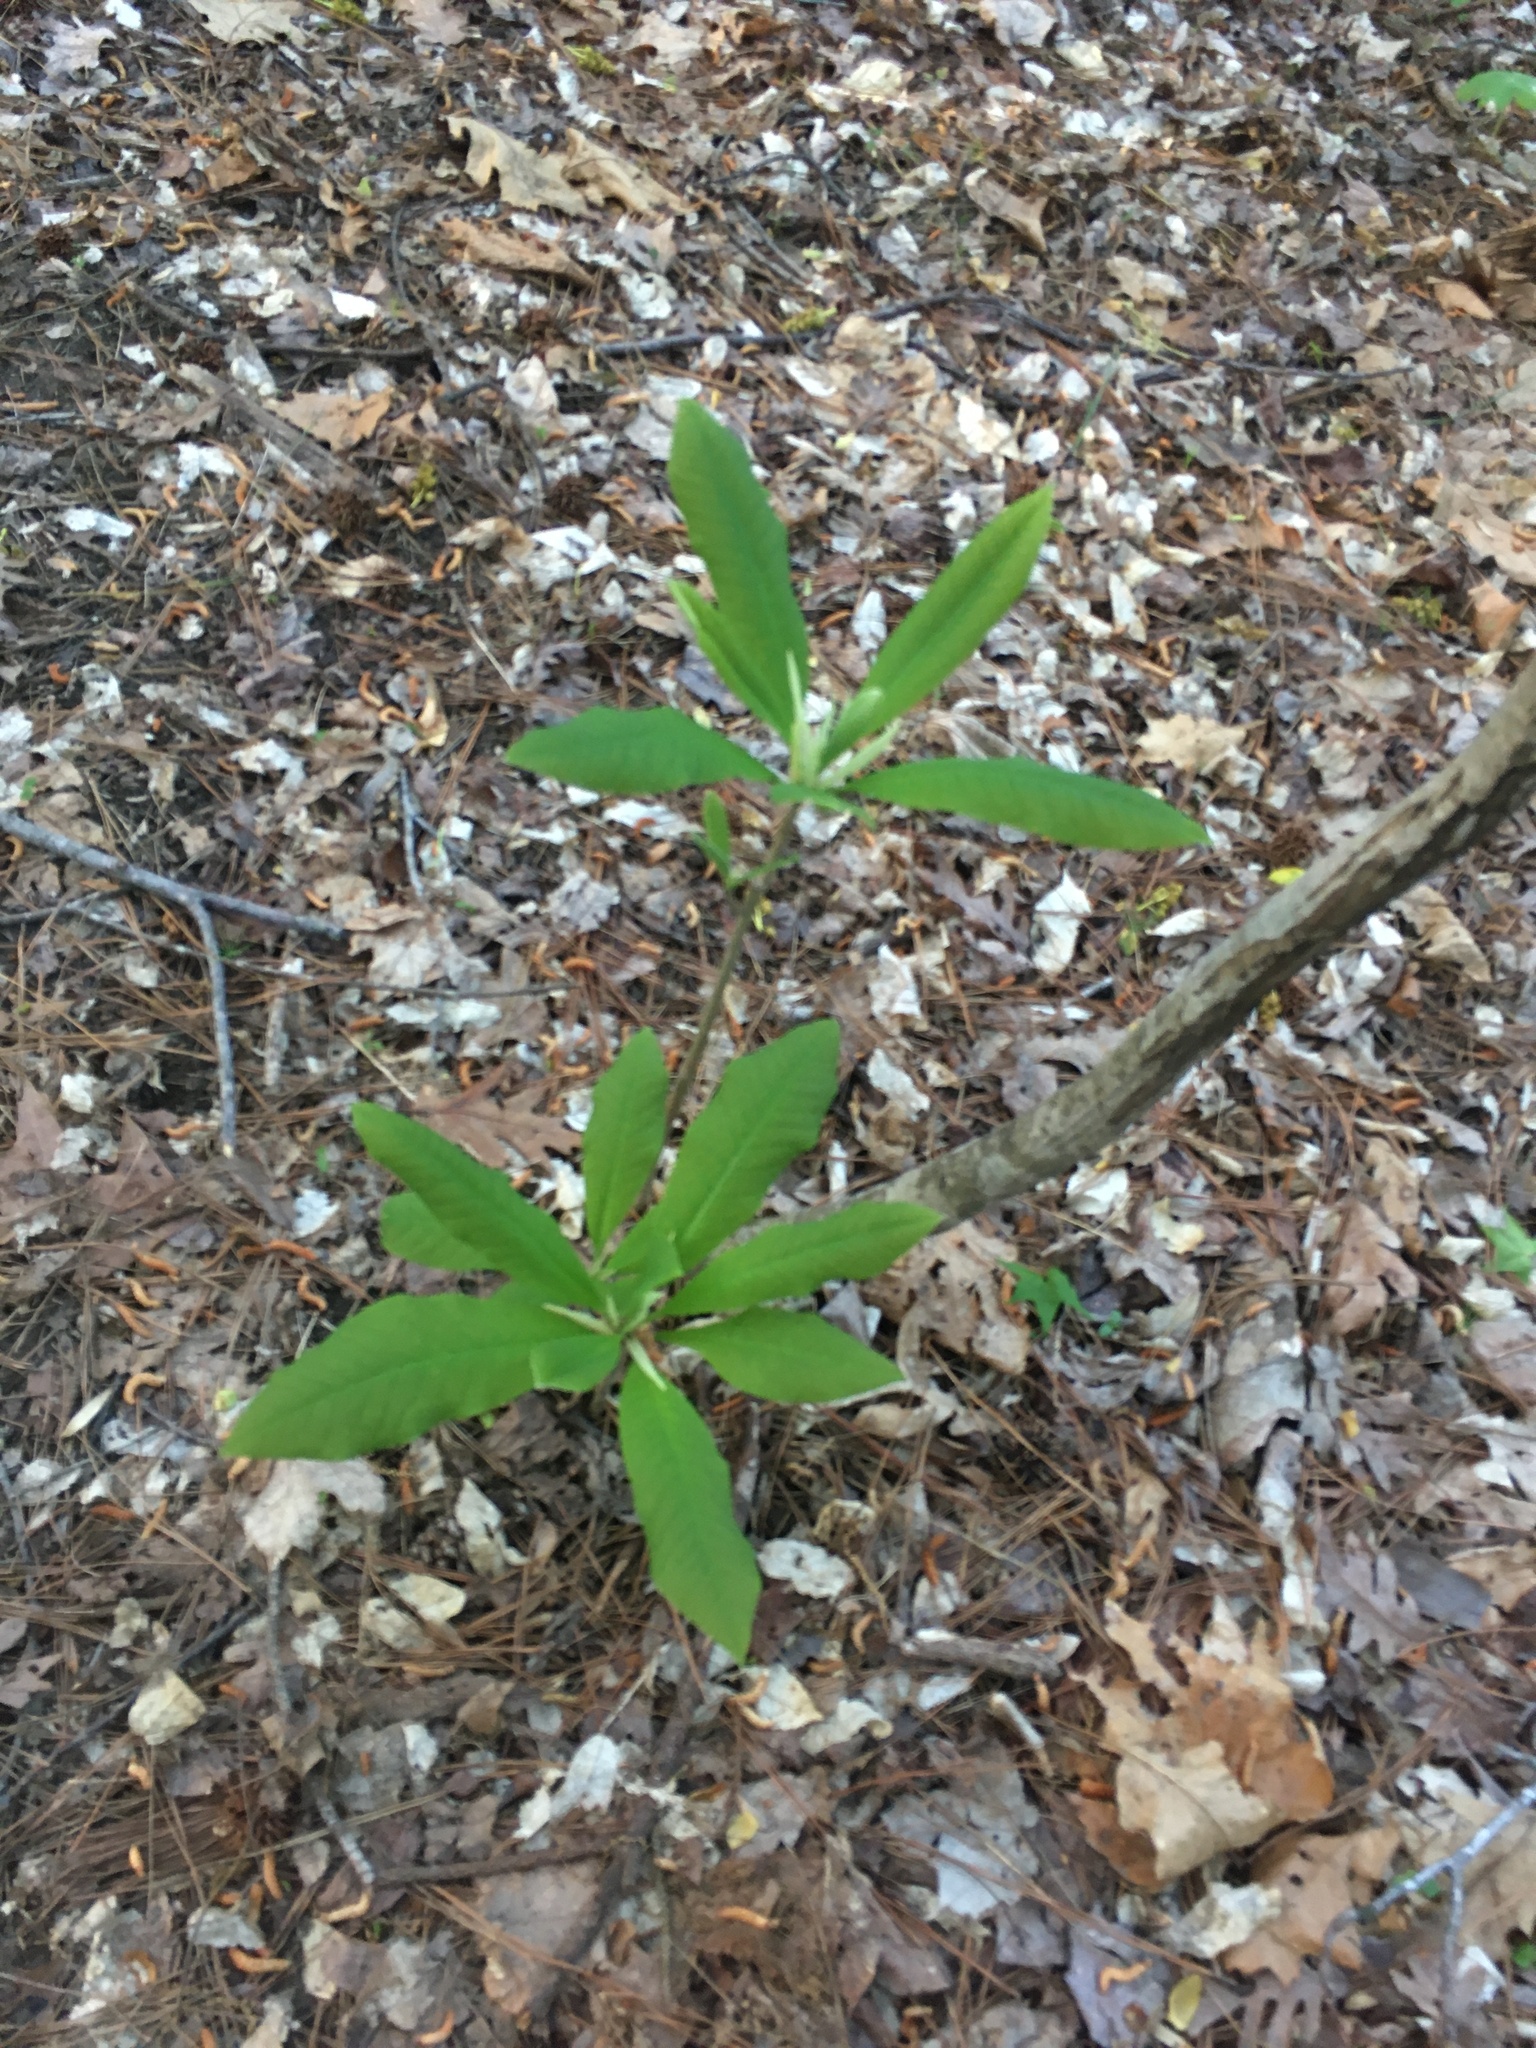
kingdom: Plantae
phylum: Tracheophyta
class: Magnoliopsida
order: Magnoliales
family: Magnoliaceae
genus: Magnolia
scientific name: Magnolia tripetala
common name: Umbrella magnolia
